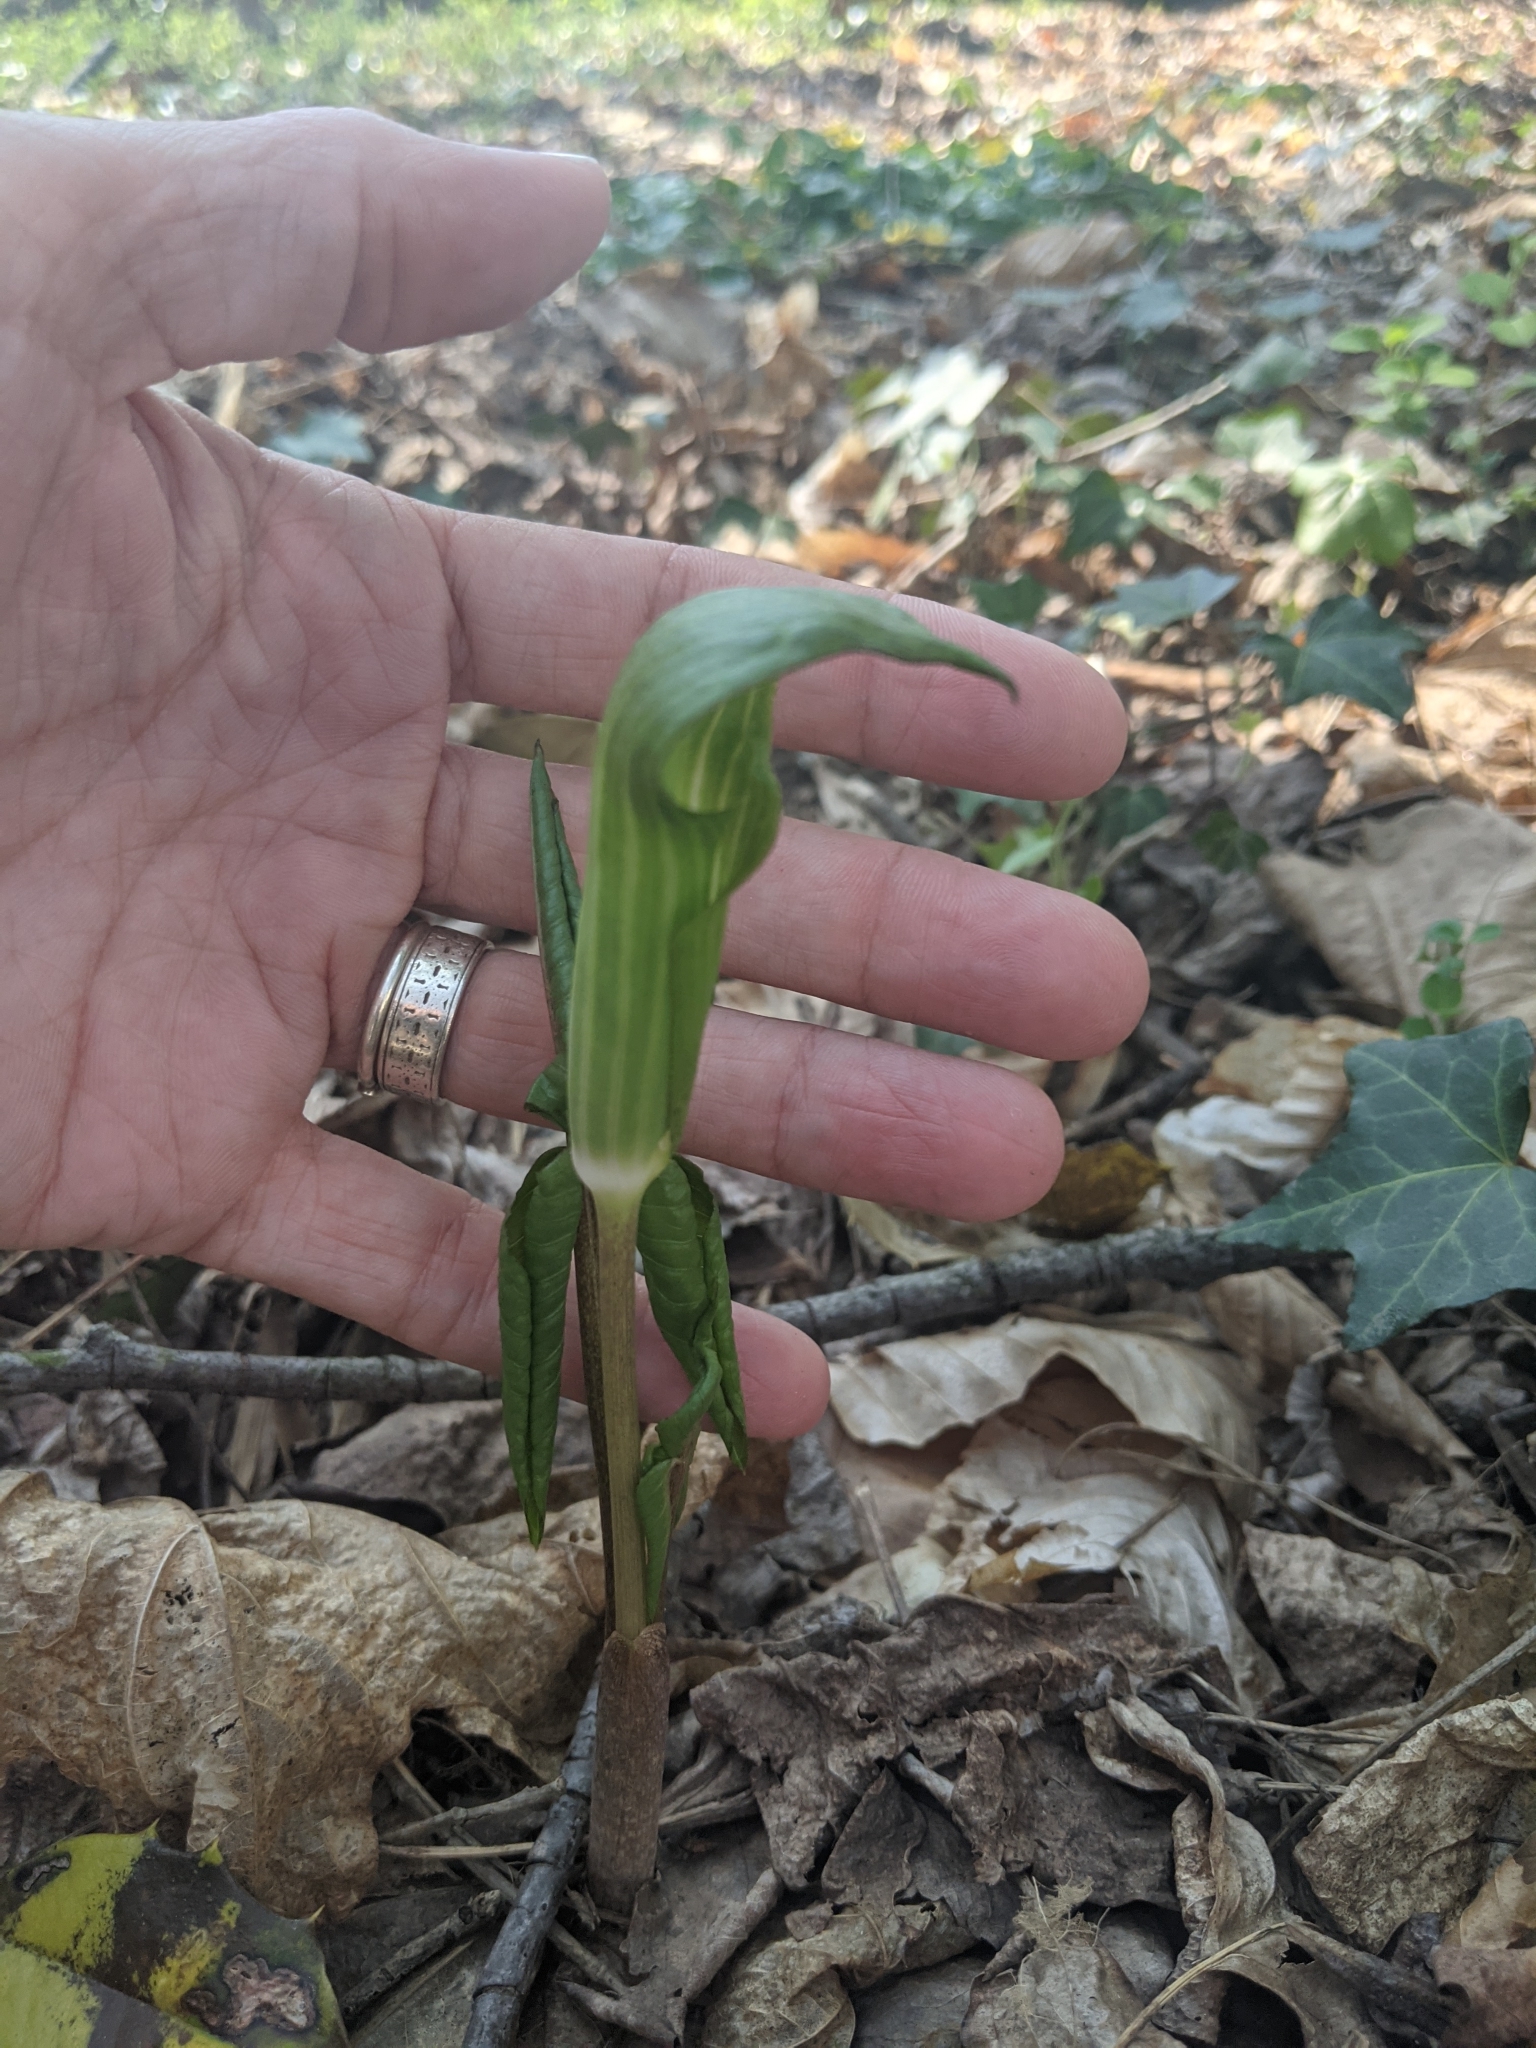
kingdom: Plantae
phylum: Tracheophyta
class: Liliopsida
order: Alismatales
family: Araceae
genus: Arisaema
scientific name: Arisaema triphyllum
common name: Jack-in-the-pulpit
